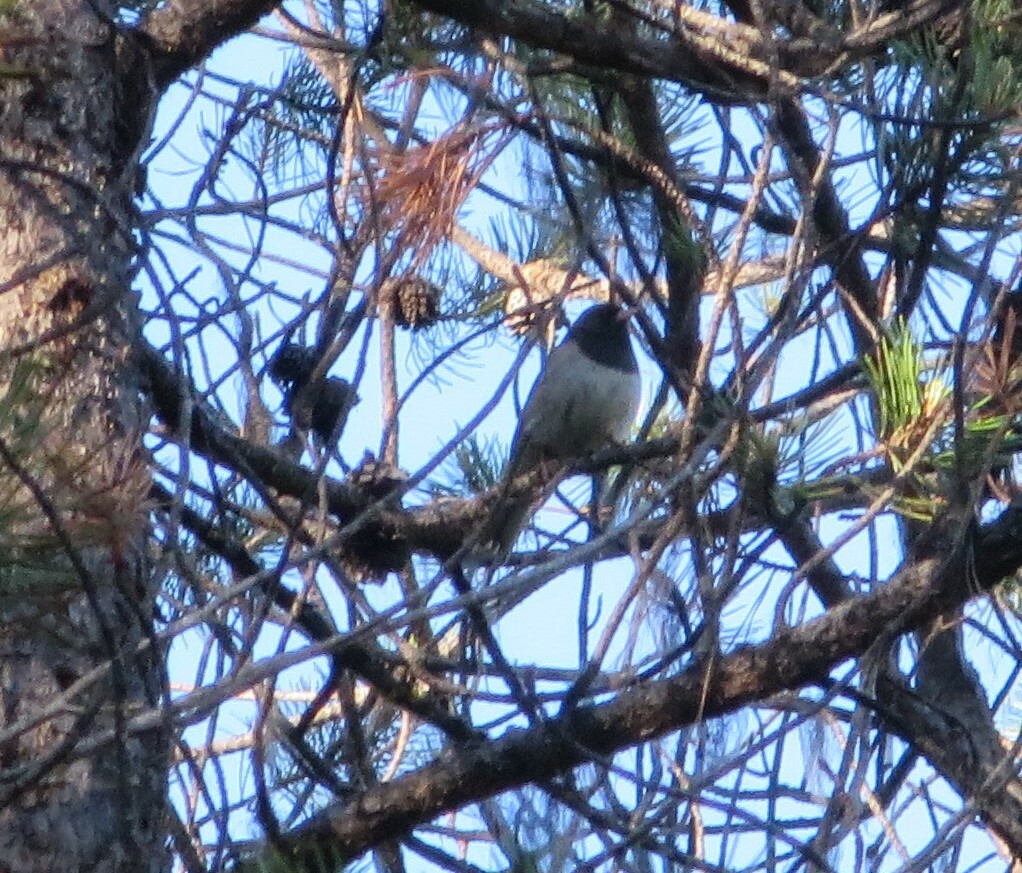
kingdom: Animalia
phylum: Chordata
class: Aves
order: Passeriformes
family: Passerellidae
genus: Junco
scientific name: Junco hyemalis
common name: Dark-eyed junco
